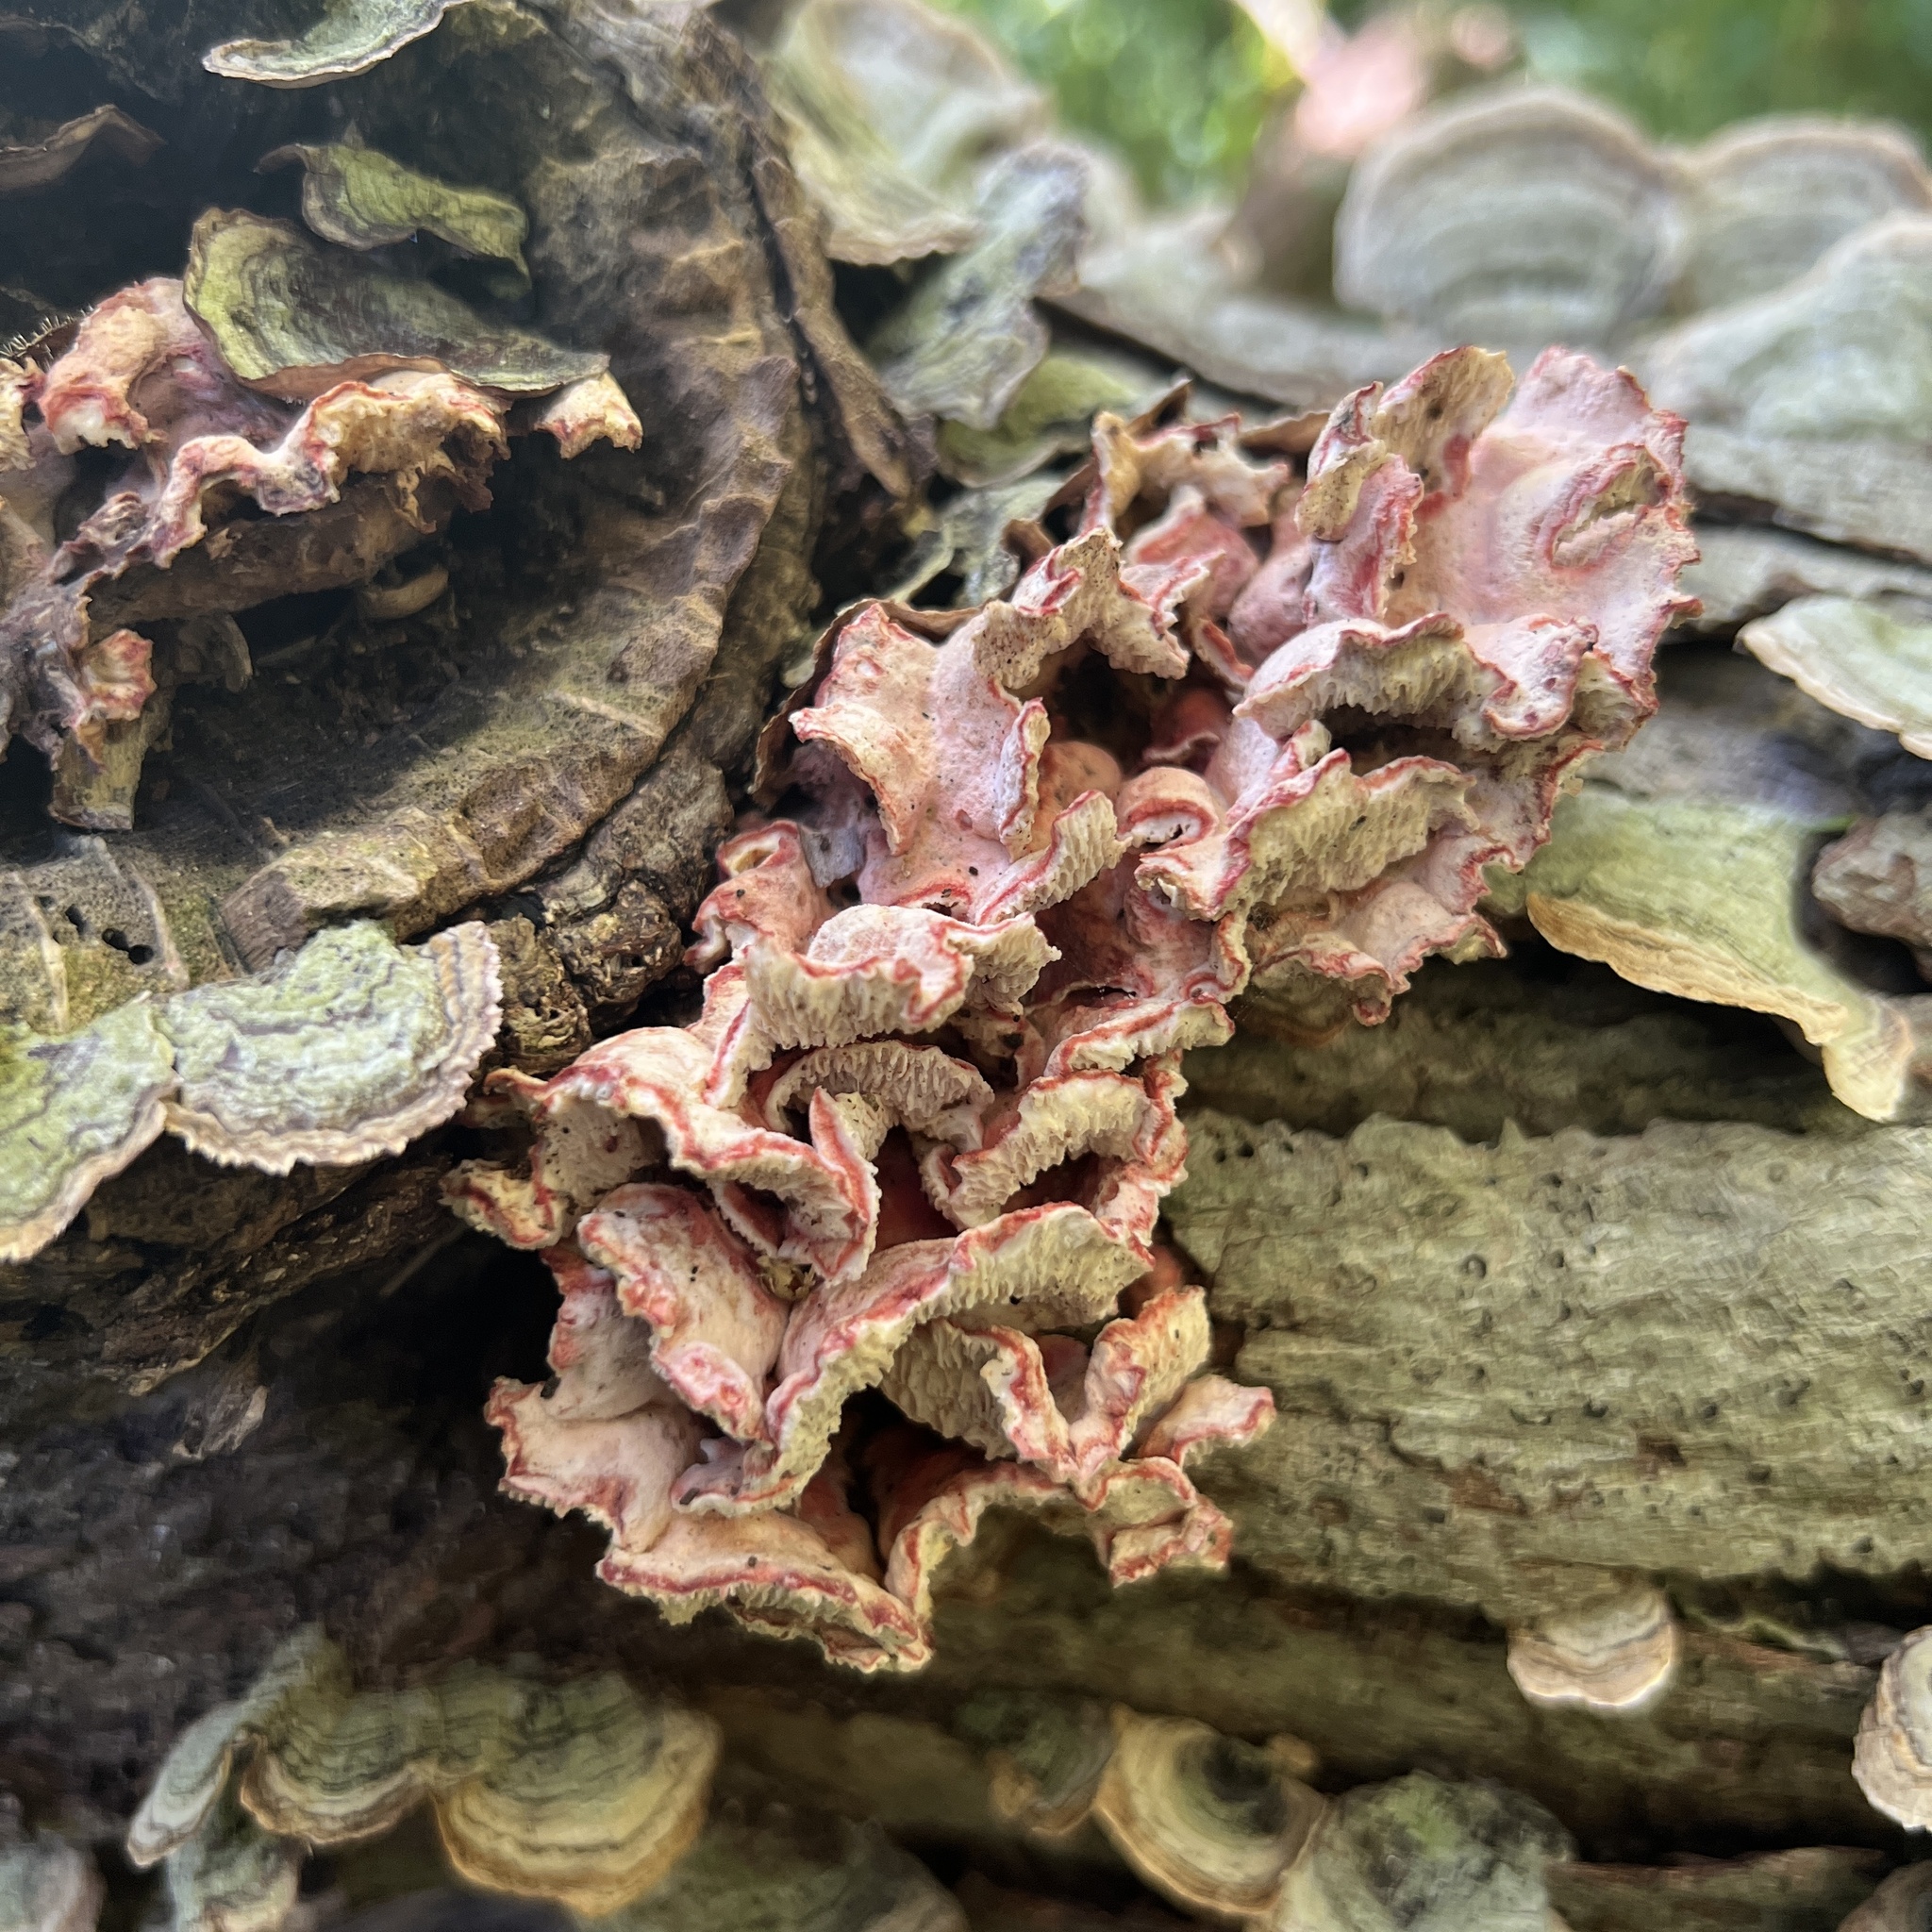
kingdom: Fungi
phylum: Basidiomycota
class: Agaricomycetes
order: Polyporales
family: Irpicaceae
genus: Byssomerulius
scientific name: Byssomerulius incarnatus
